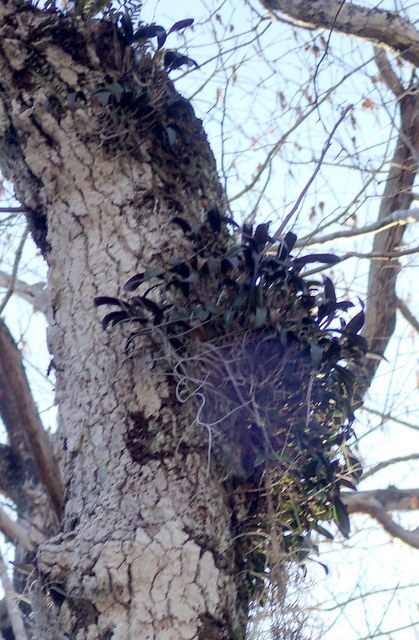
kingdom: Plantae
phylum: Tracheophyta
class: Liliopsida
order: Asparagales
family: Orchidaceae
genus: Epidendrum
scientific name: Epidendrum conopseum
